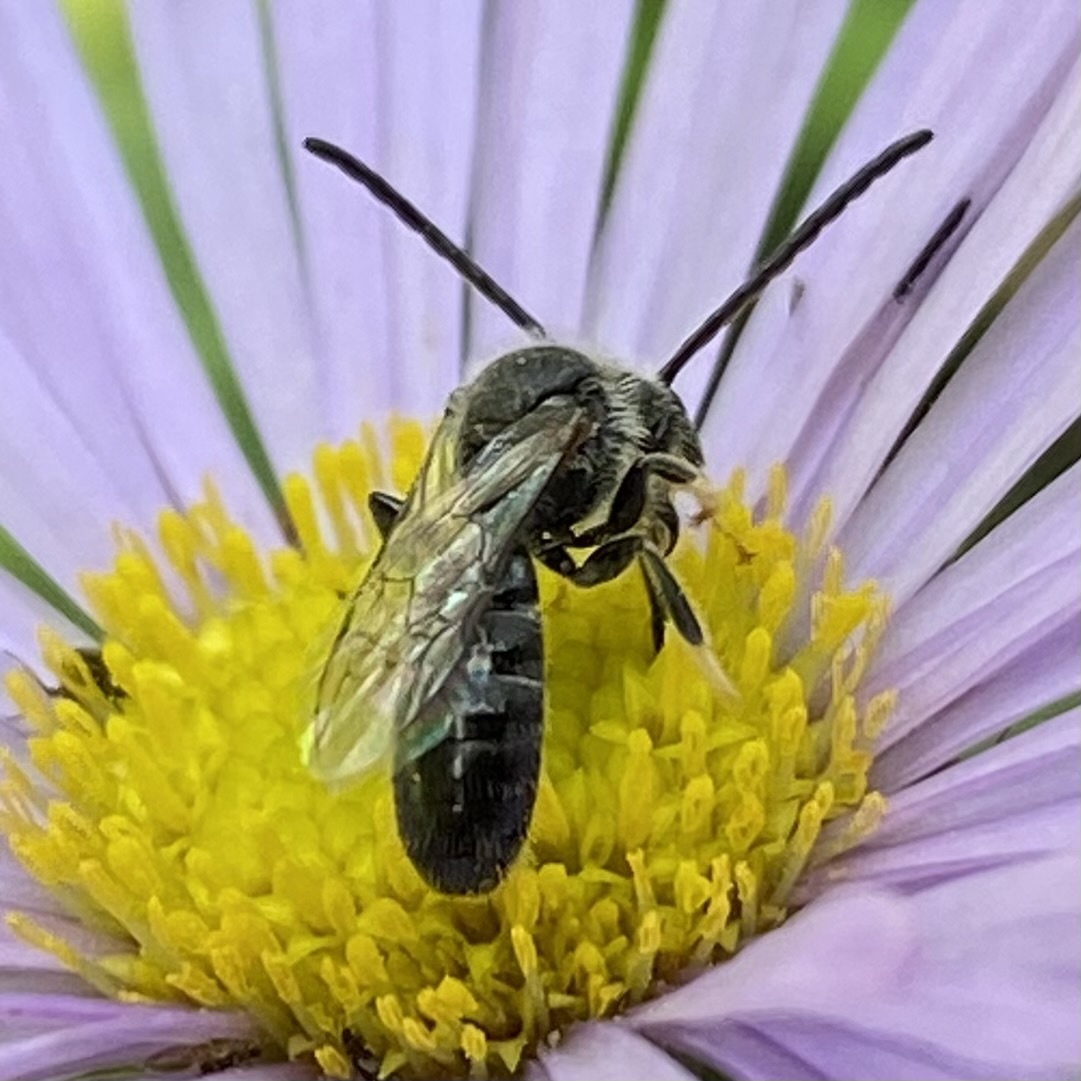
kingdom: Animalia
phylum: Arthropoda
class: Insecta
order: Hymenoptera
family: Halictidae
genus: Lasioglossum
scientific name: Lasioglossum
